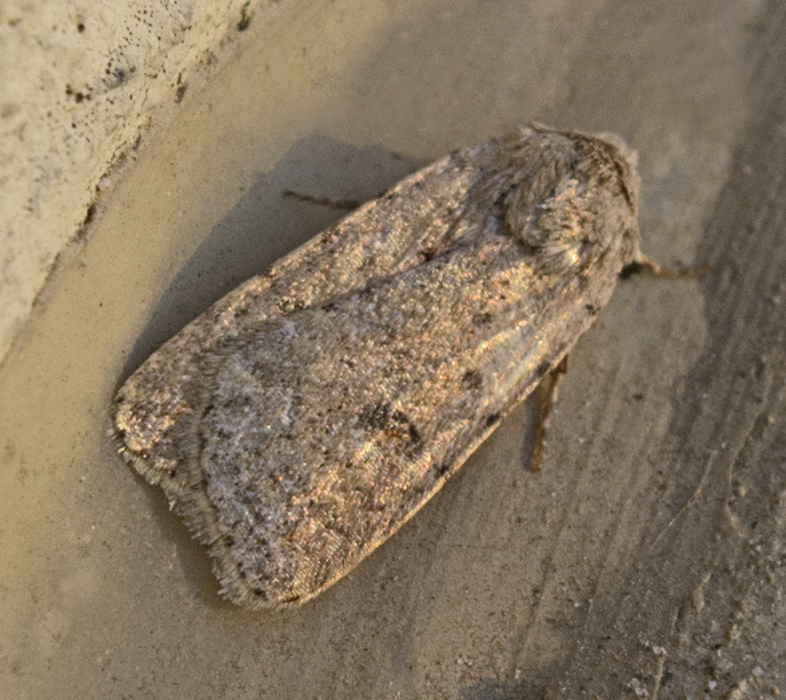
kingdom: Animalia
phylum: Arthropoda
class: Insecta
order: Lepidoptera
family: Noctuidae
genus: Caradrina
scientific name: Caradrina
